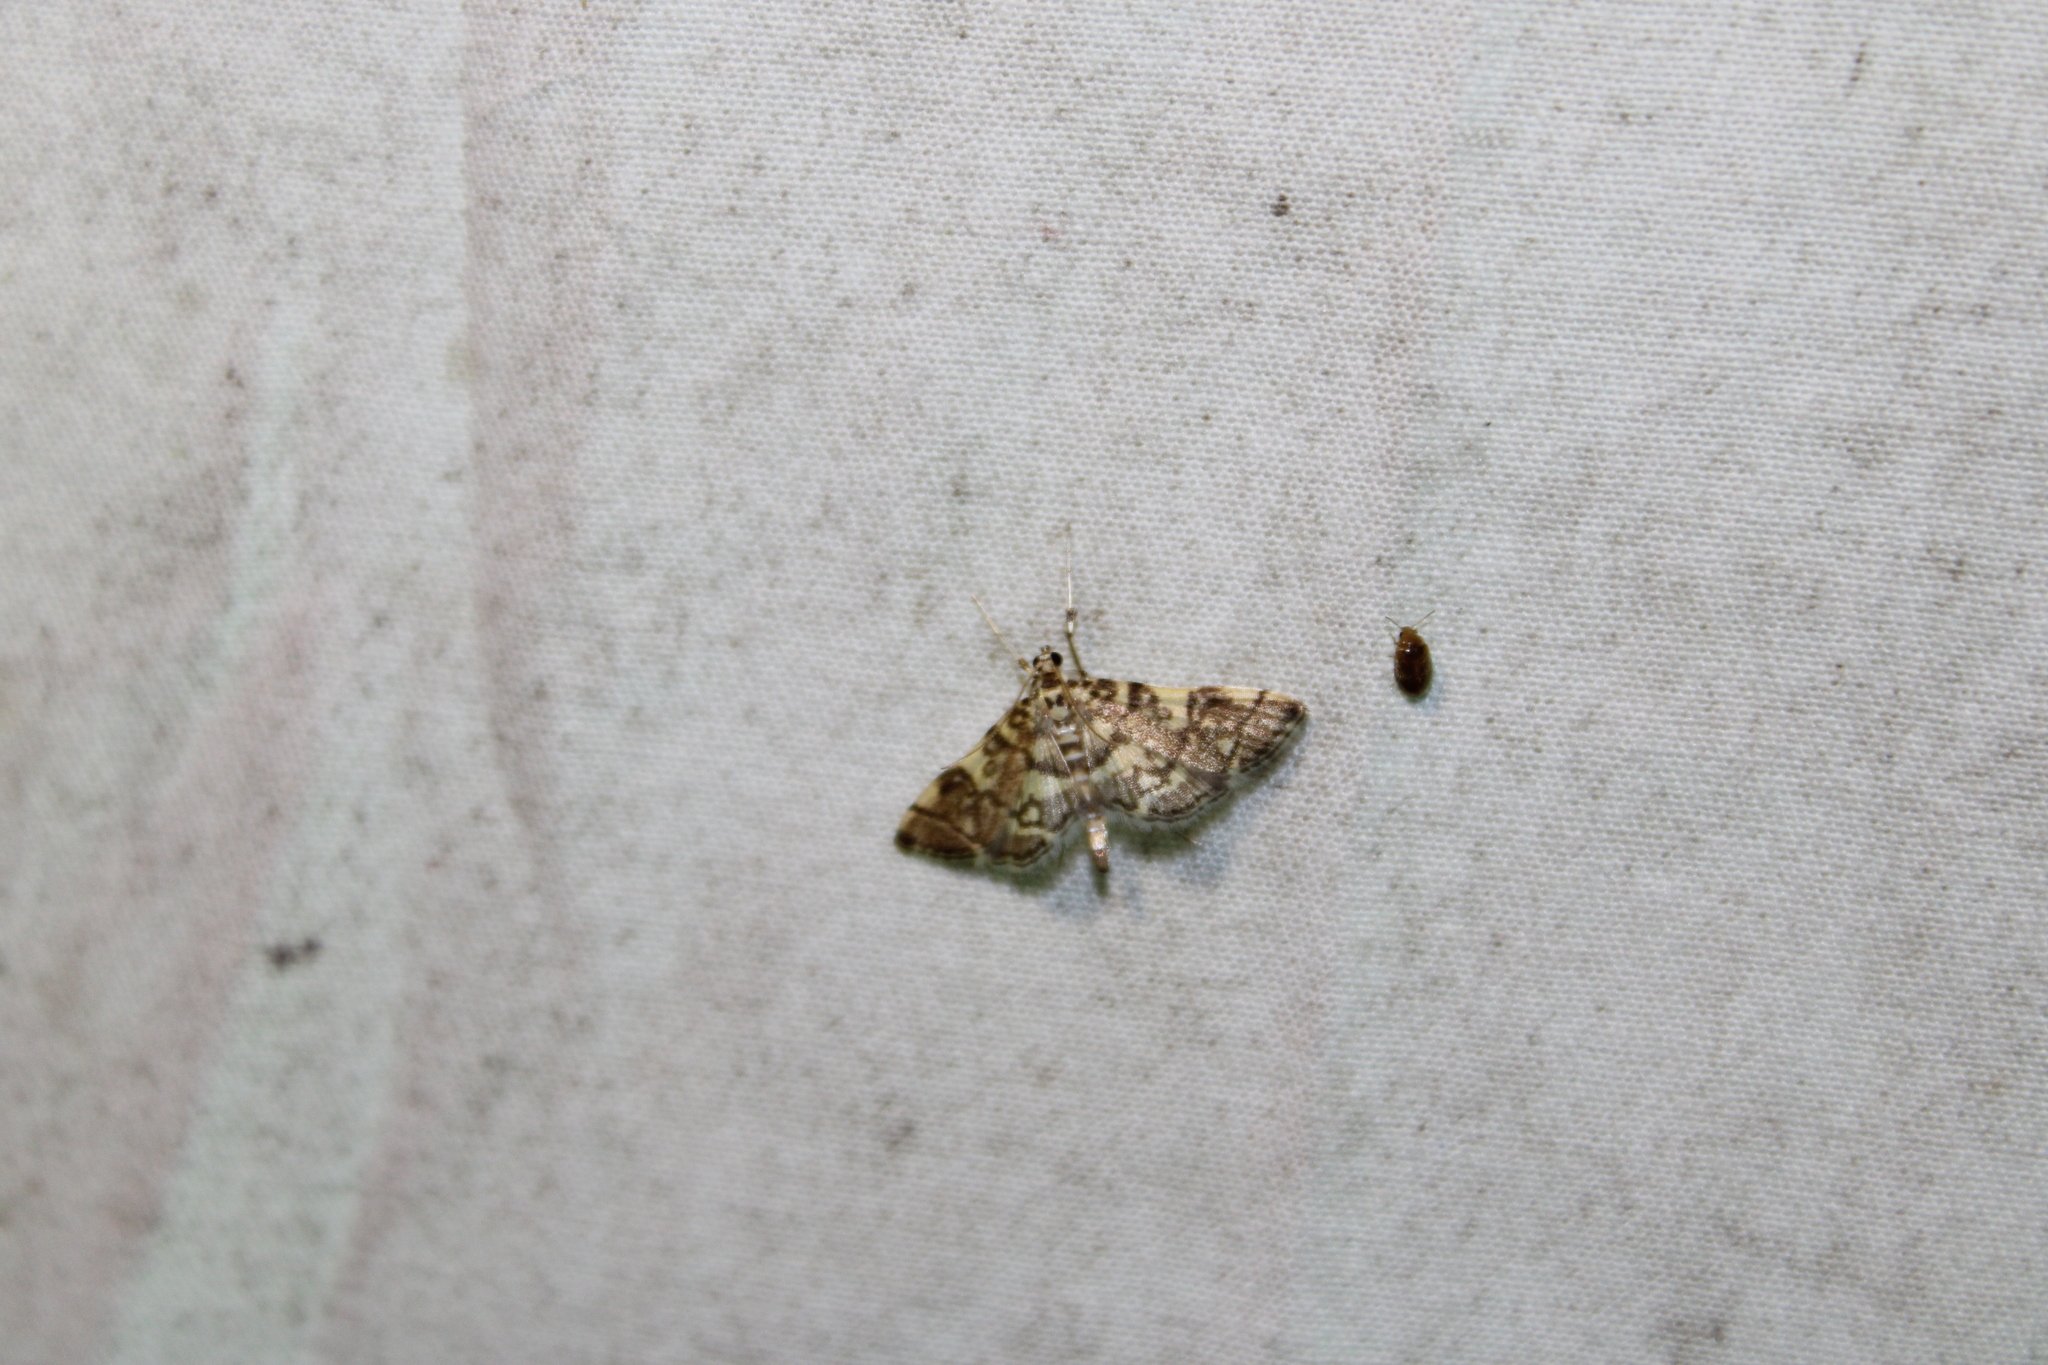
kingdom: Animalia
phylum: Arthropoda
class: Insecta
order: Lepidoptera
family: Crambidae
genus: Apogeshna
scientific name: Apogeshna stenialis
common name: Checkered apogeshna moth
